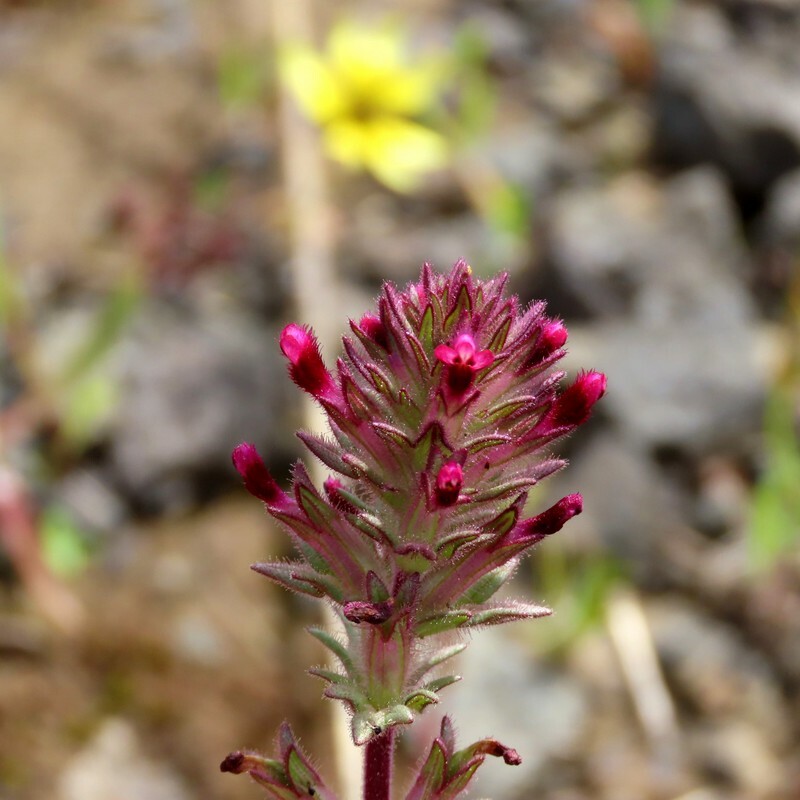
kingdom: Plantae
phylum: Tracheophyta
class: Magnoliopsida
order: Lamiales
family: Orobanchaceae
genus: Parentucellia
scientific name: Parentucellia latifolia
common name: Broadleaf glandweed
